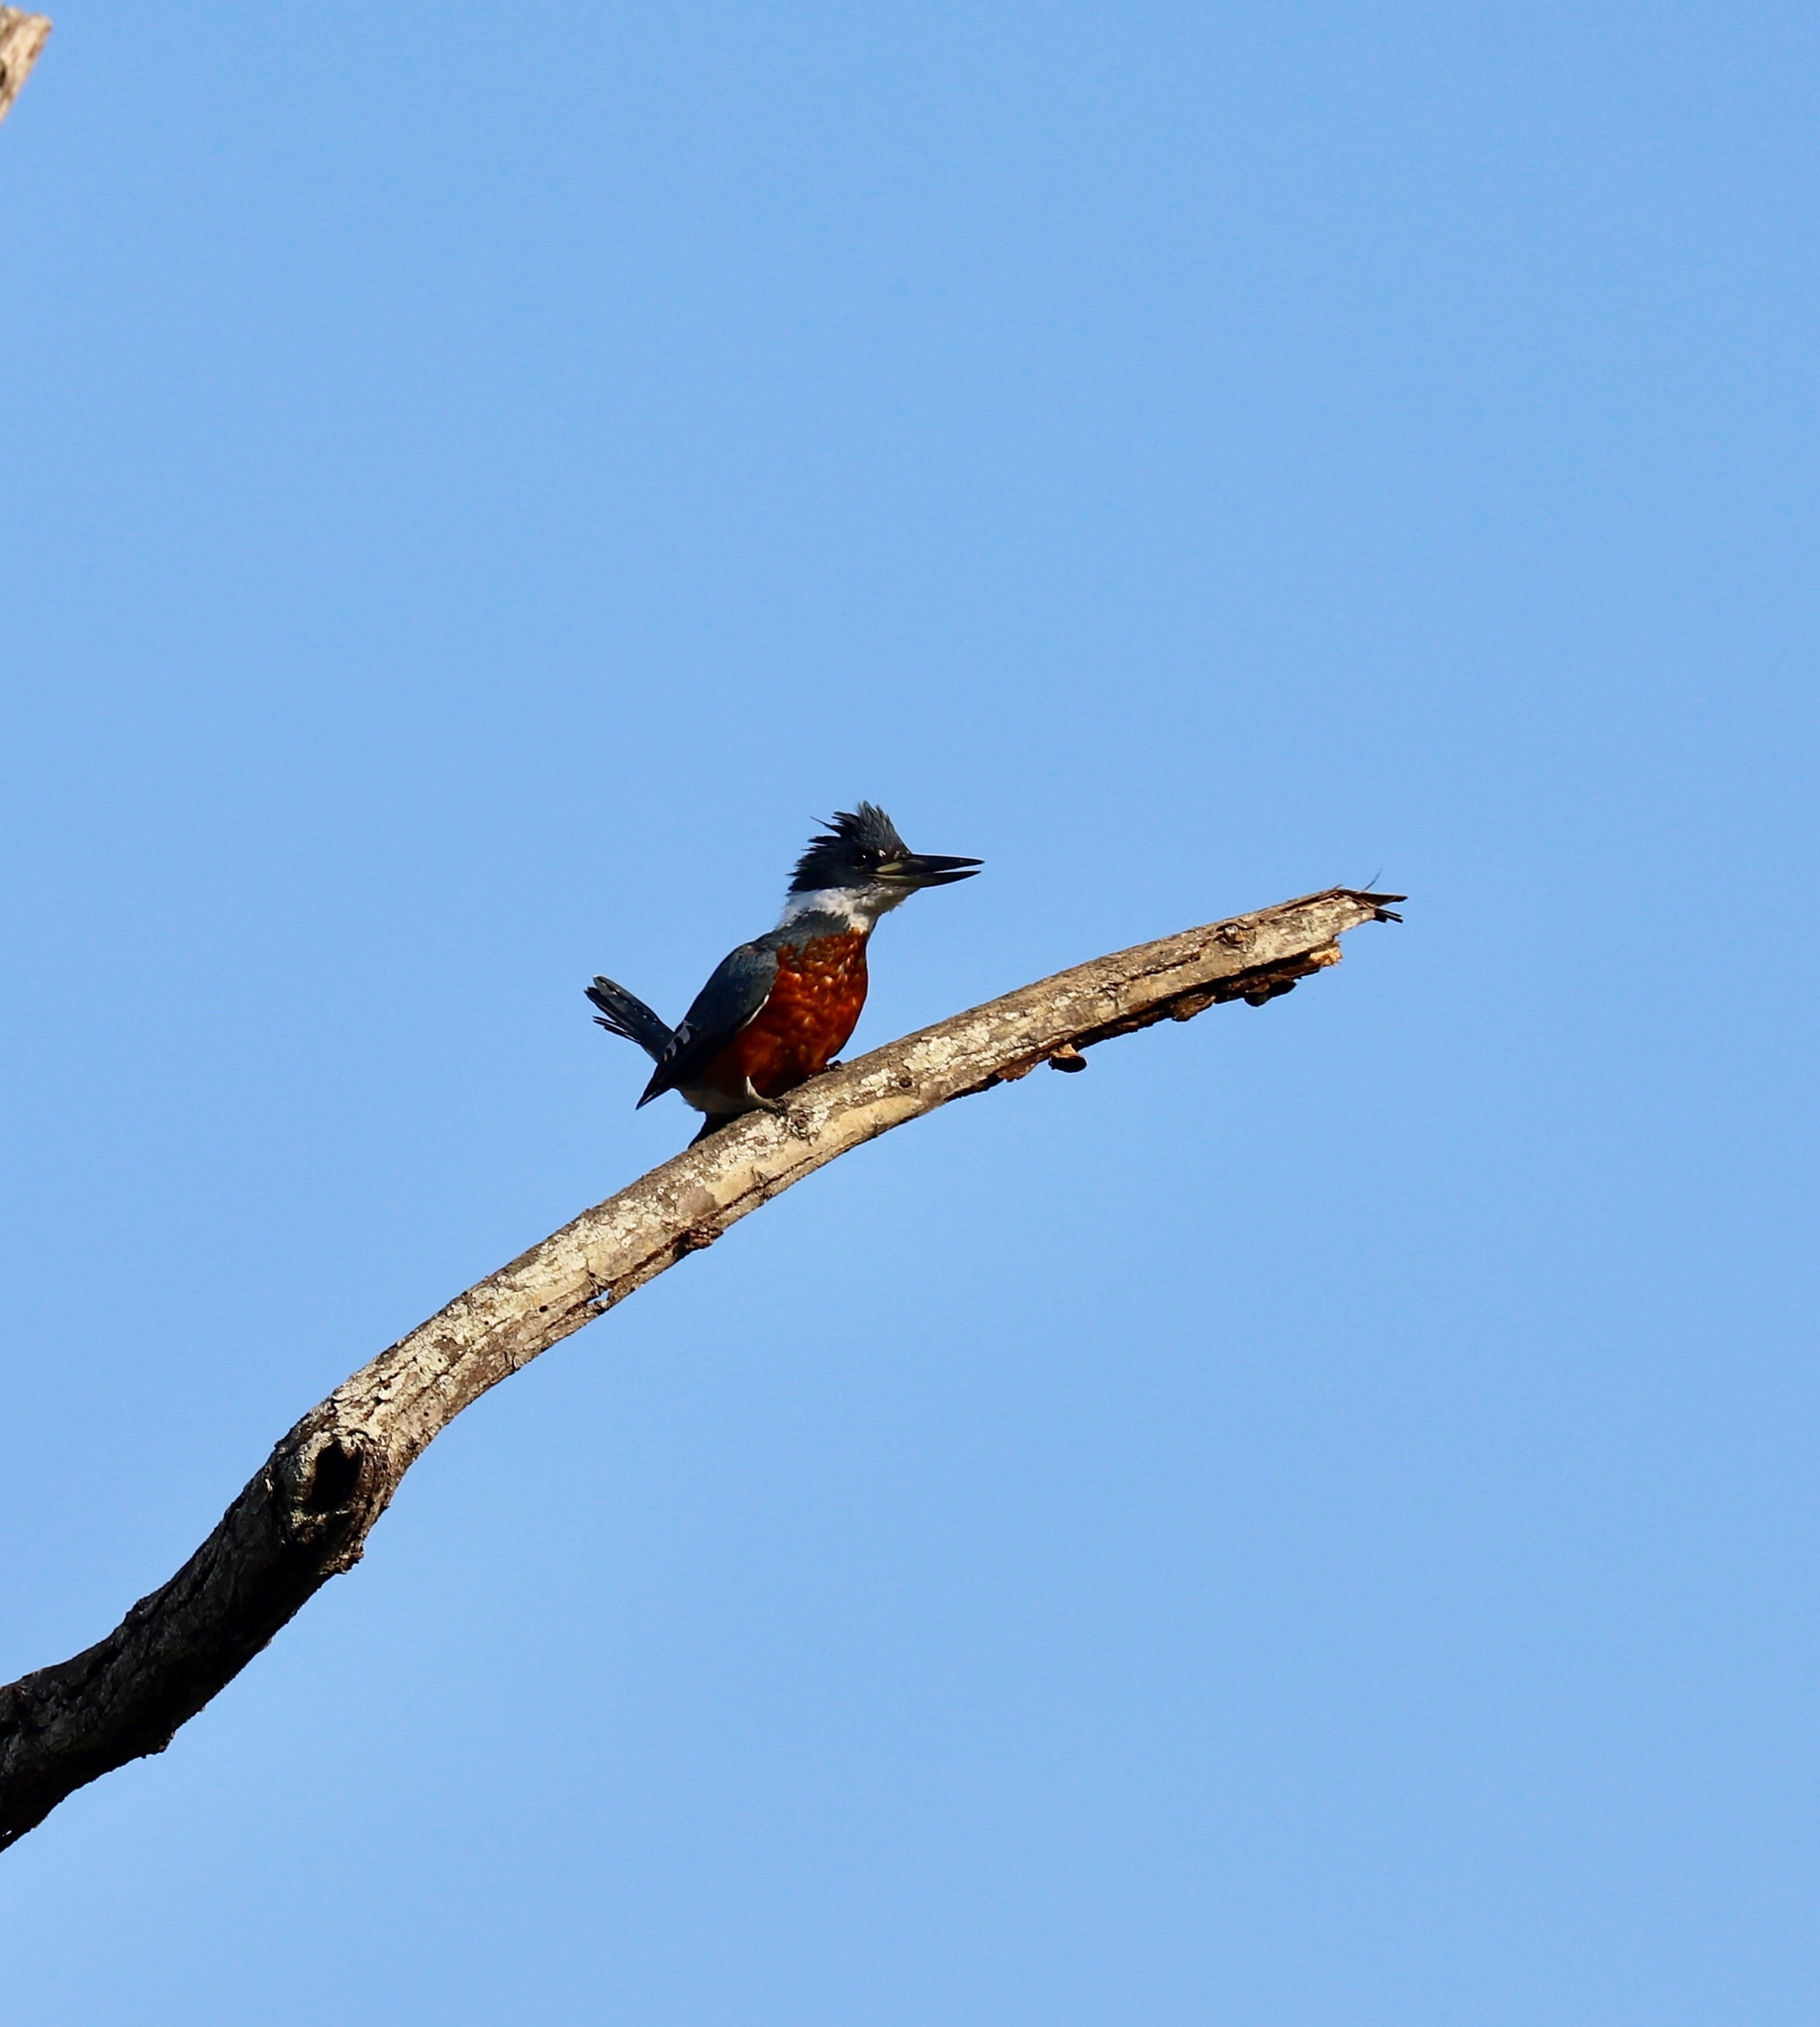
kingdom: Animalia
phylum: Chordata
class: Aves
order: Coraciiformes
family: Alcedinidae
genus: Megaceryle
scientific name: Megaceryle torquata
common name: Ringed kingfisher
